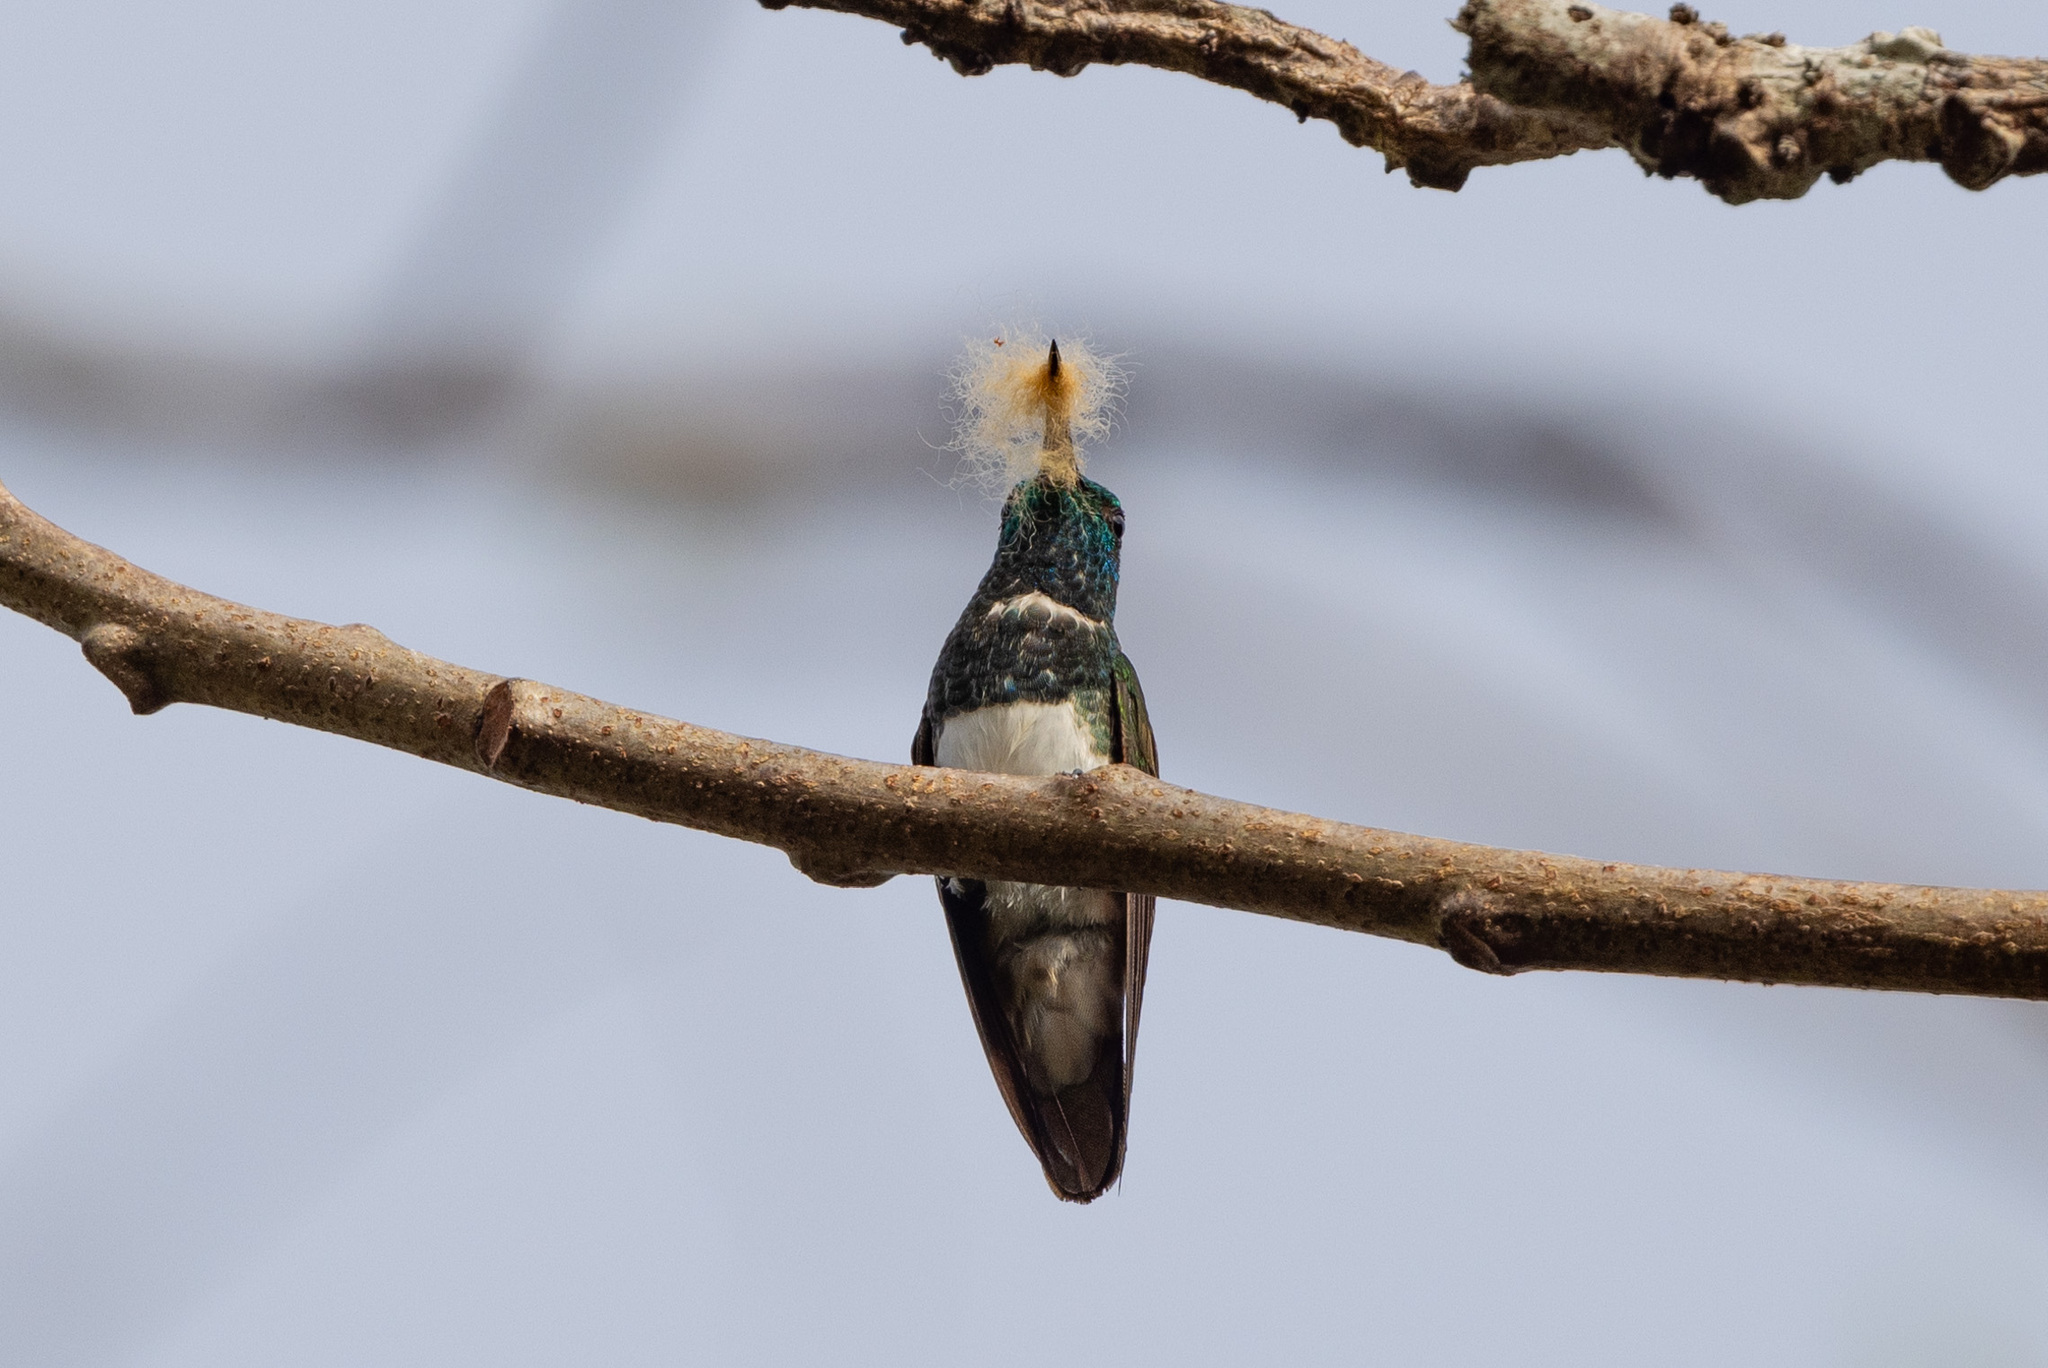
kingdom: Animalia
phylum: Chordata
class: Aves
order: Apodiformes
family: Trochilidae
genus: Saucerottia
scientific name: Saucerottia edward
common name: Snowy-bellied hummingbird
